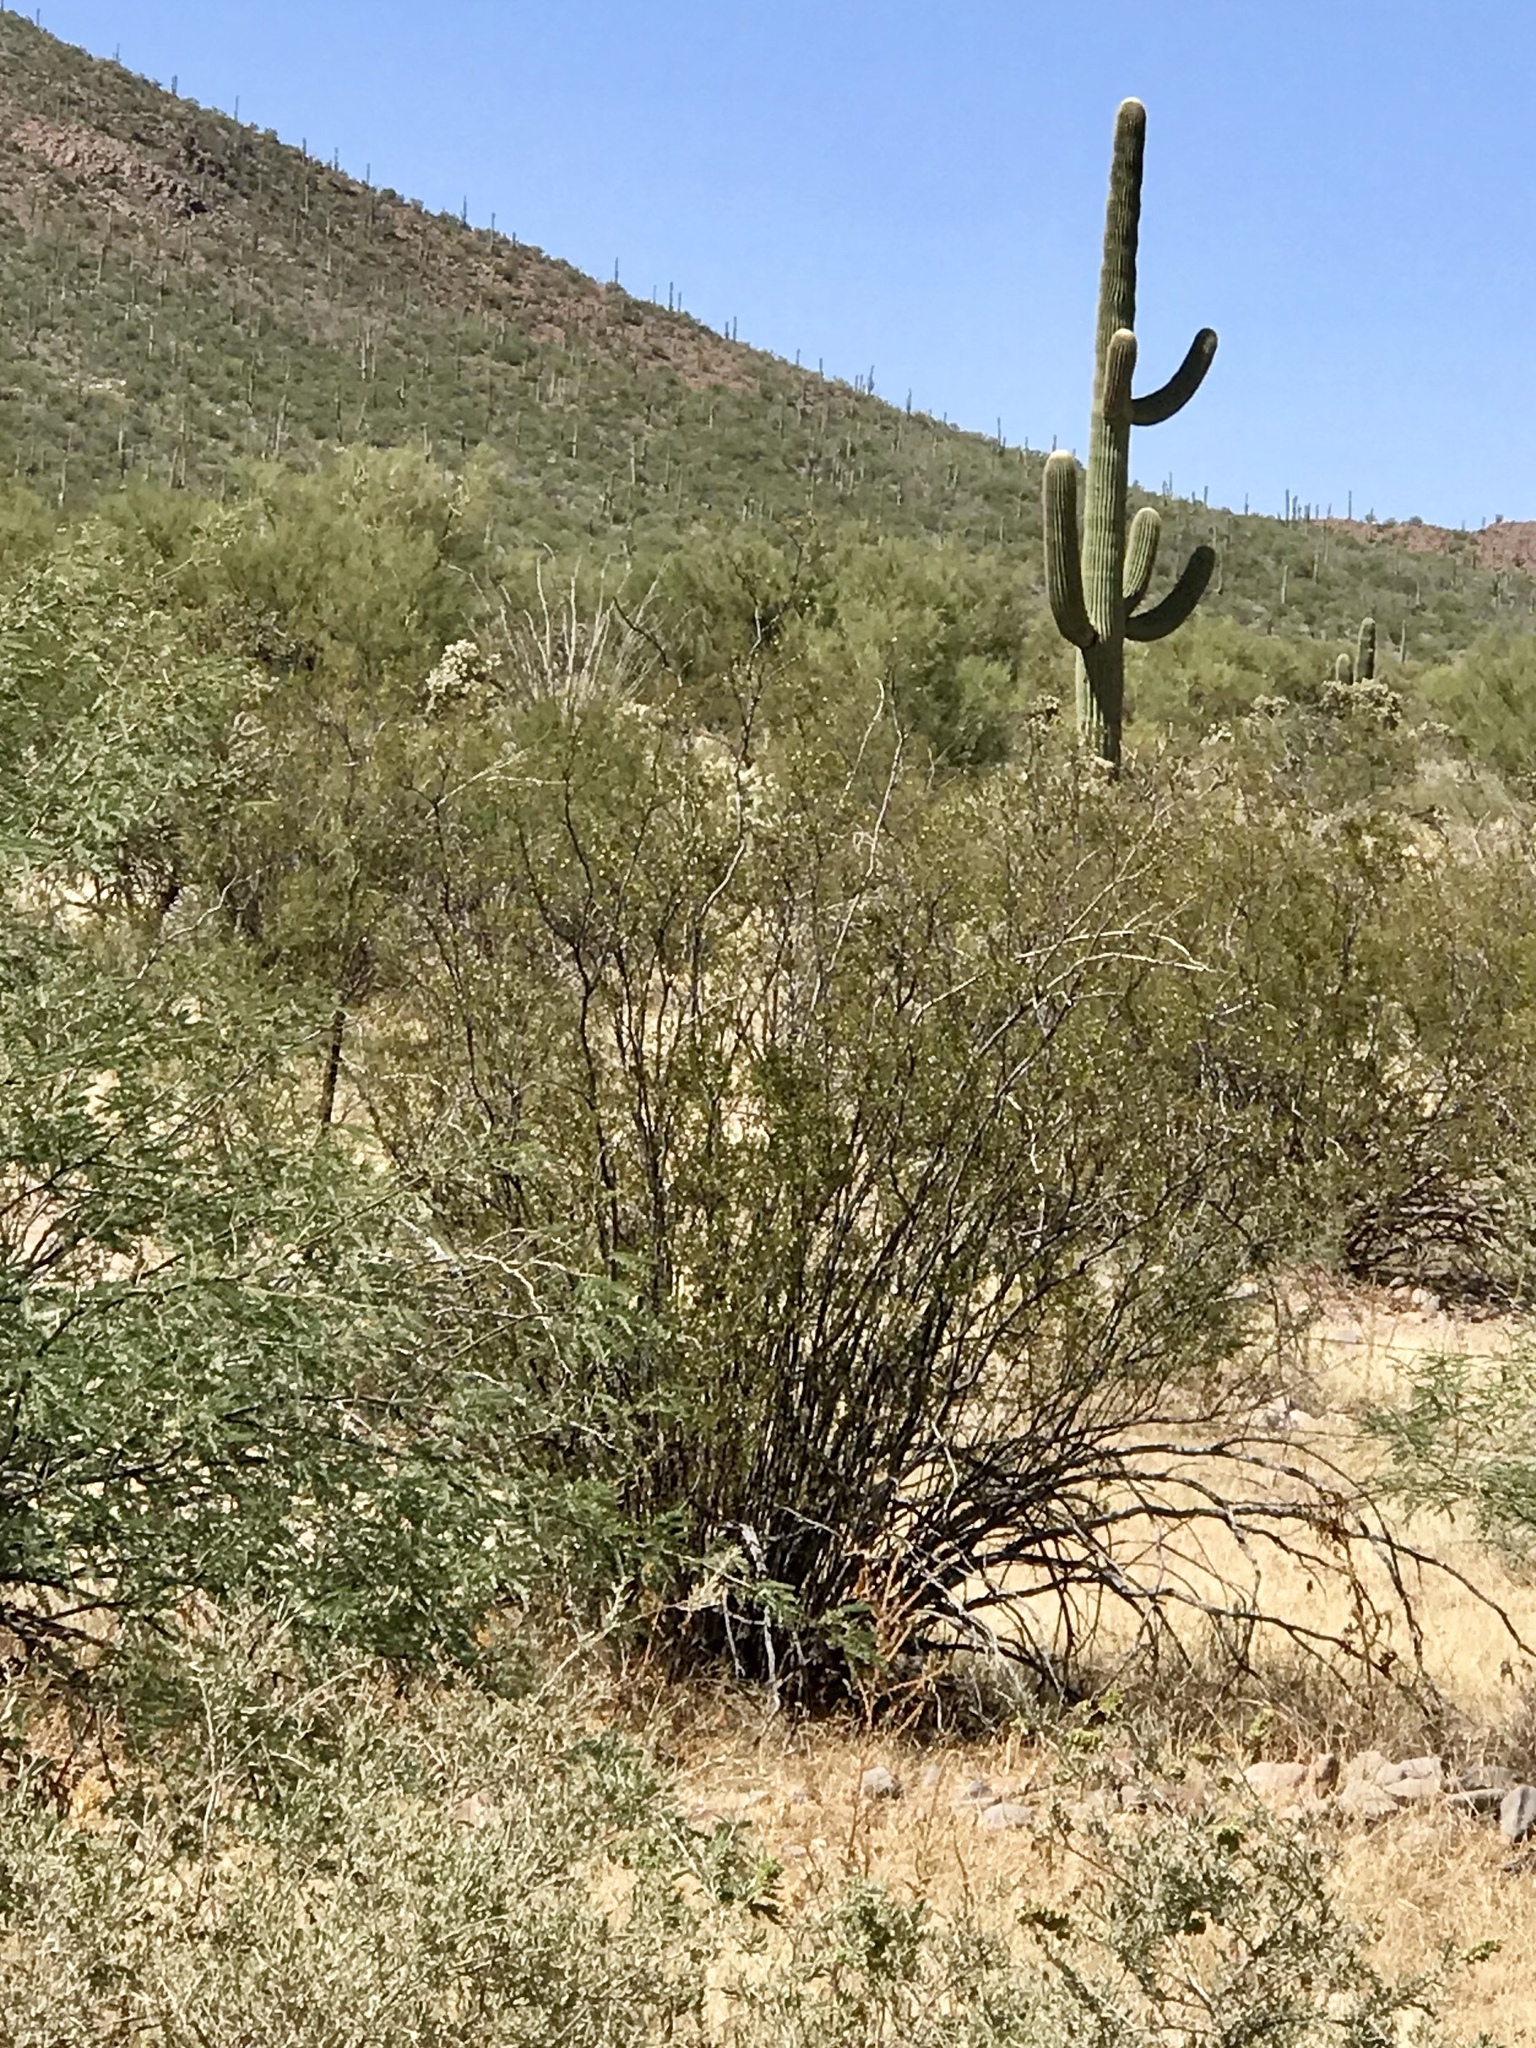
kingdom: Plantae
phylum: Tracheophyta
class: Magnoliopsida
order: Zygophyllales
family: Zygophyllaceae
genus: Larrea
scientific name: Larrea tridentata
